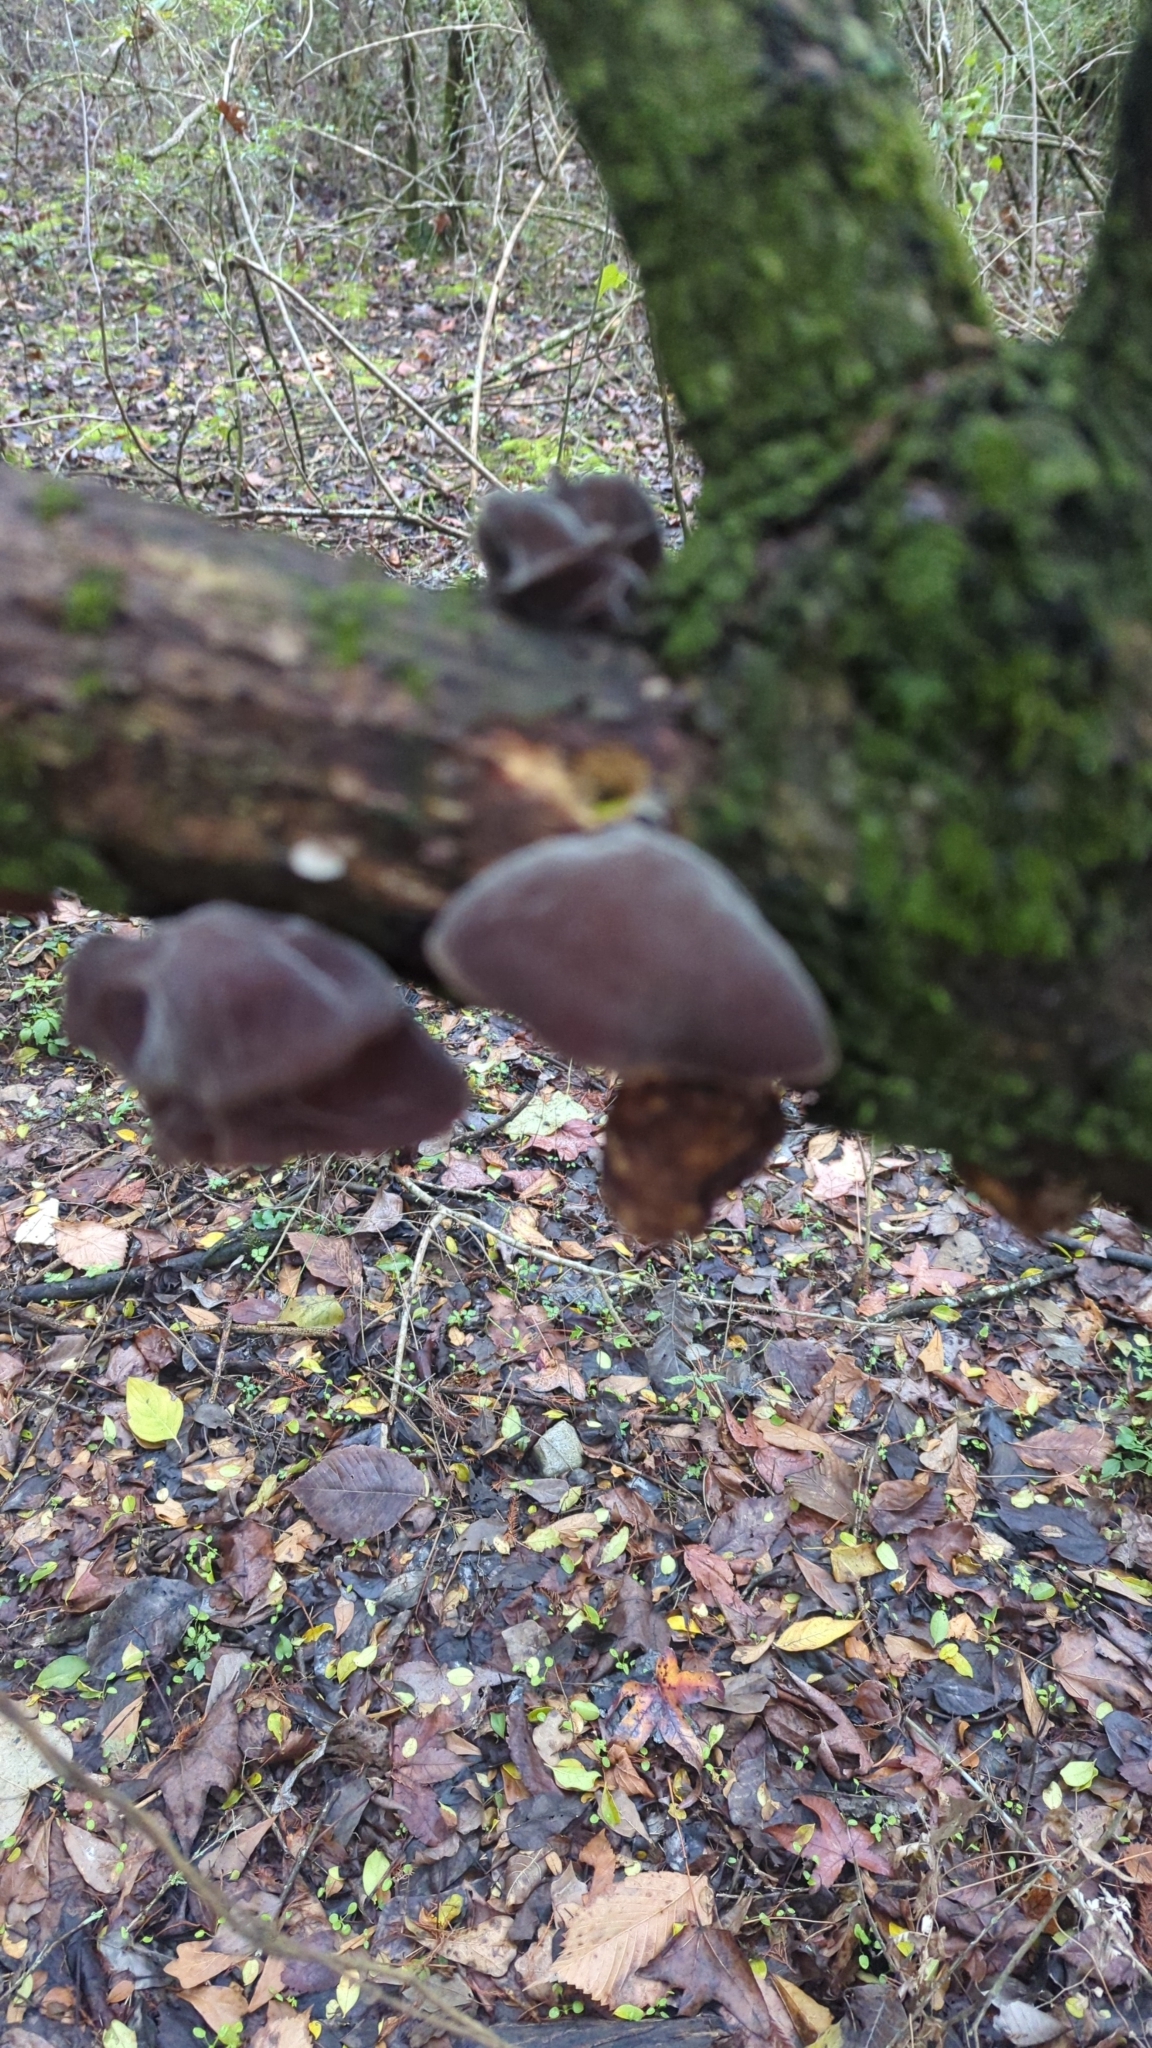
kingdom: Fungi
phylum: Basidiomycota
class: Agaricomycetes
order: Auriculariales
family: Auriculariaceae
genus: Auricularia
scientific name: Auricularia nigricans
